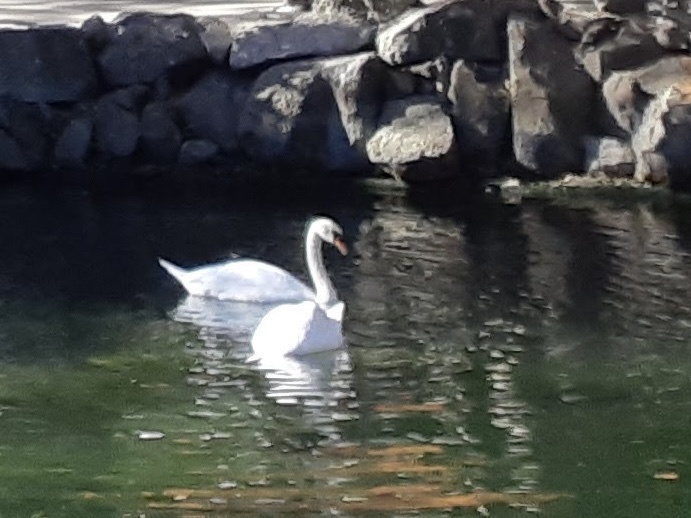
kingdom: Animalia
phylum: Chordata
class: Aves
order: Anseriformes
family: Anatidae
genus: Cygnus
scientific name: Cygnus olor
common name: Mute swan
